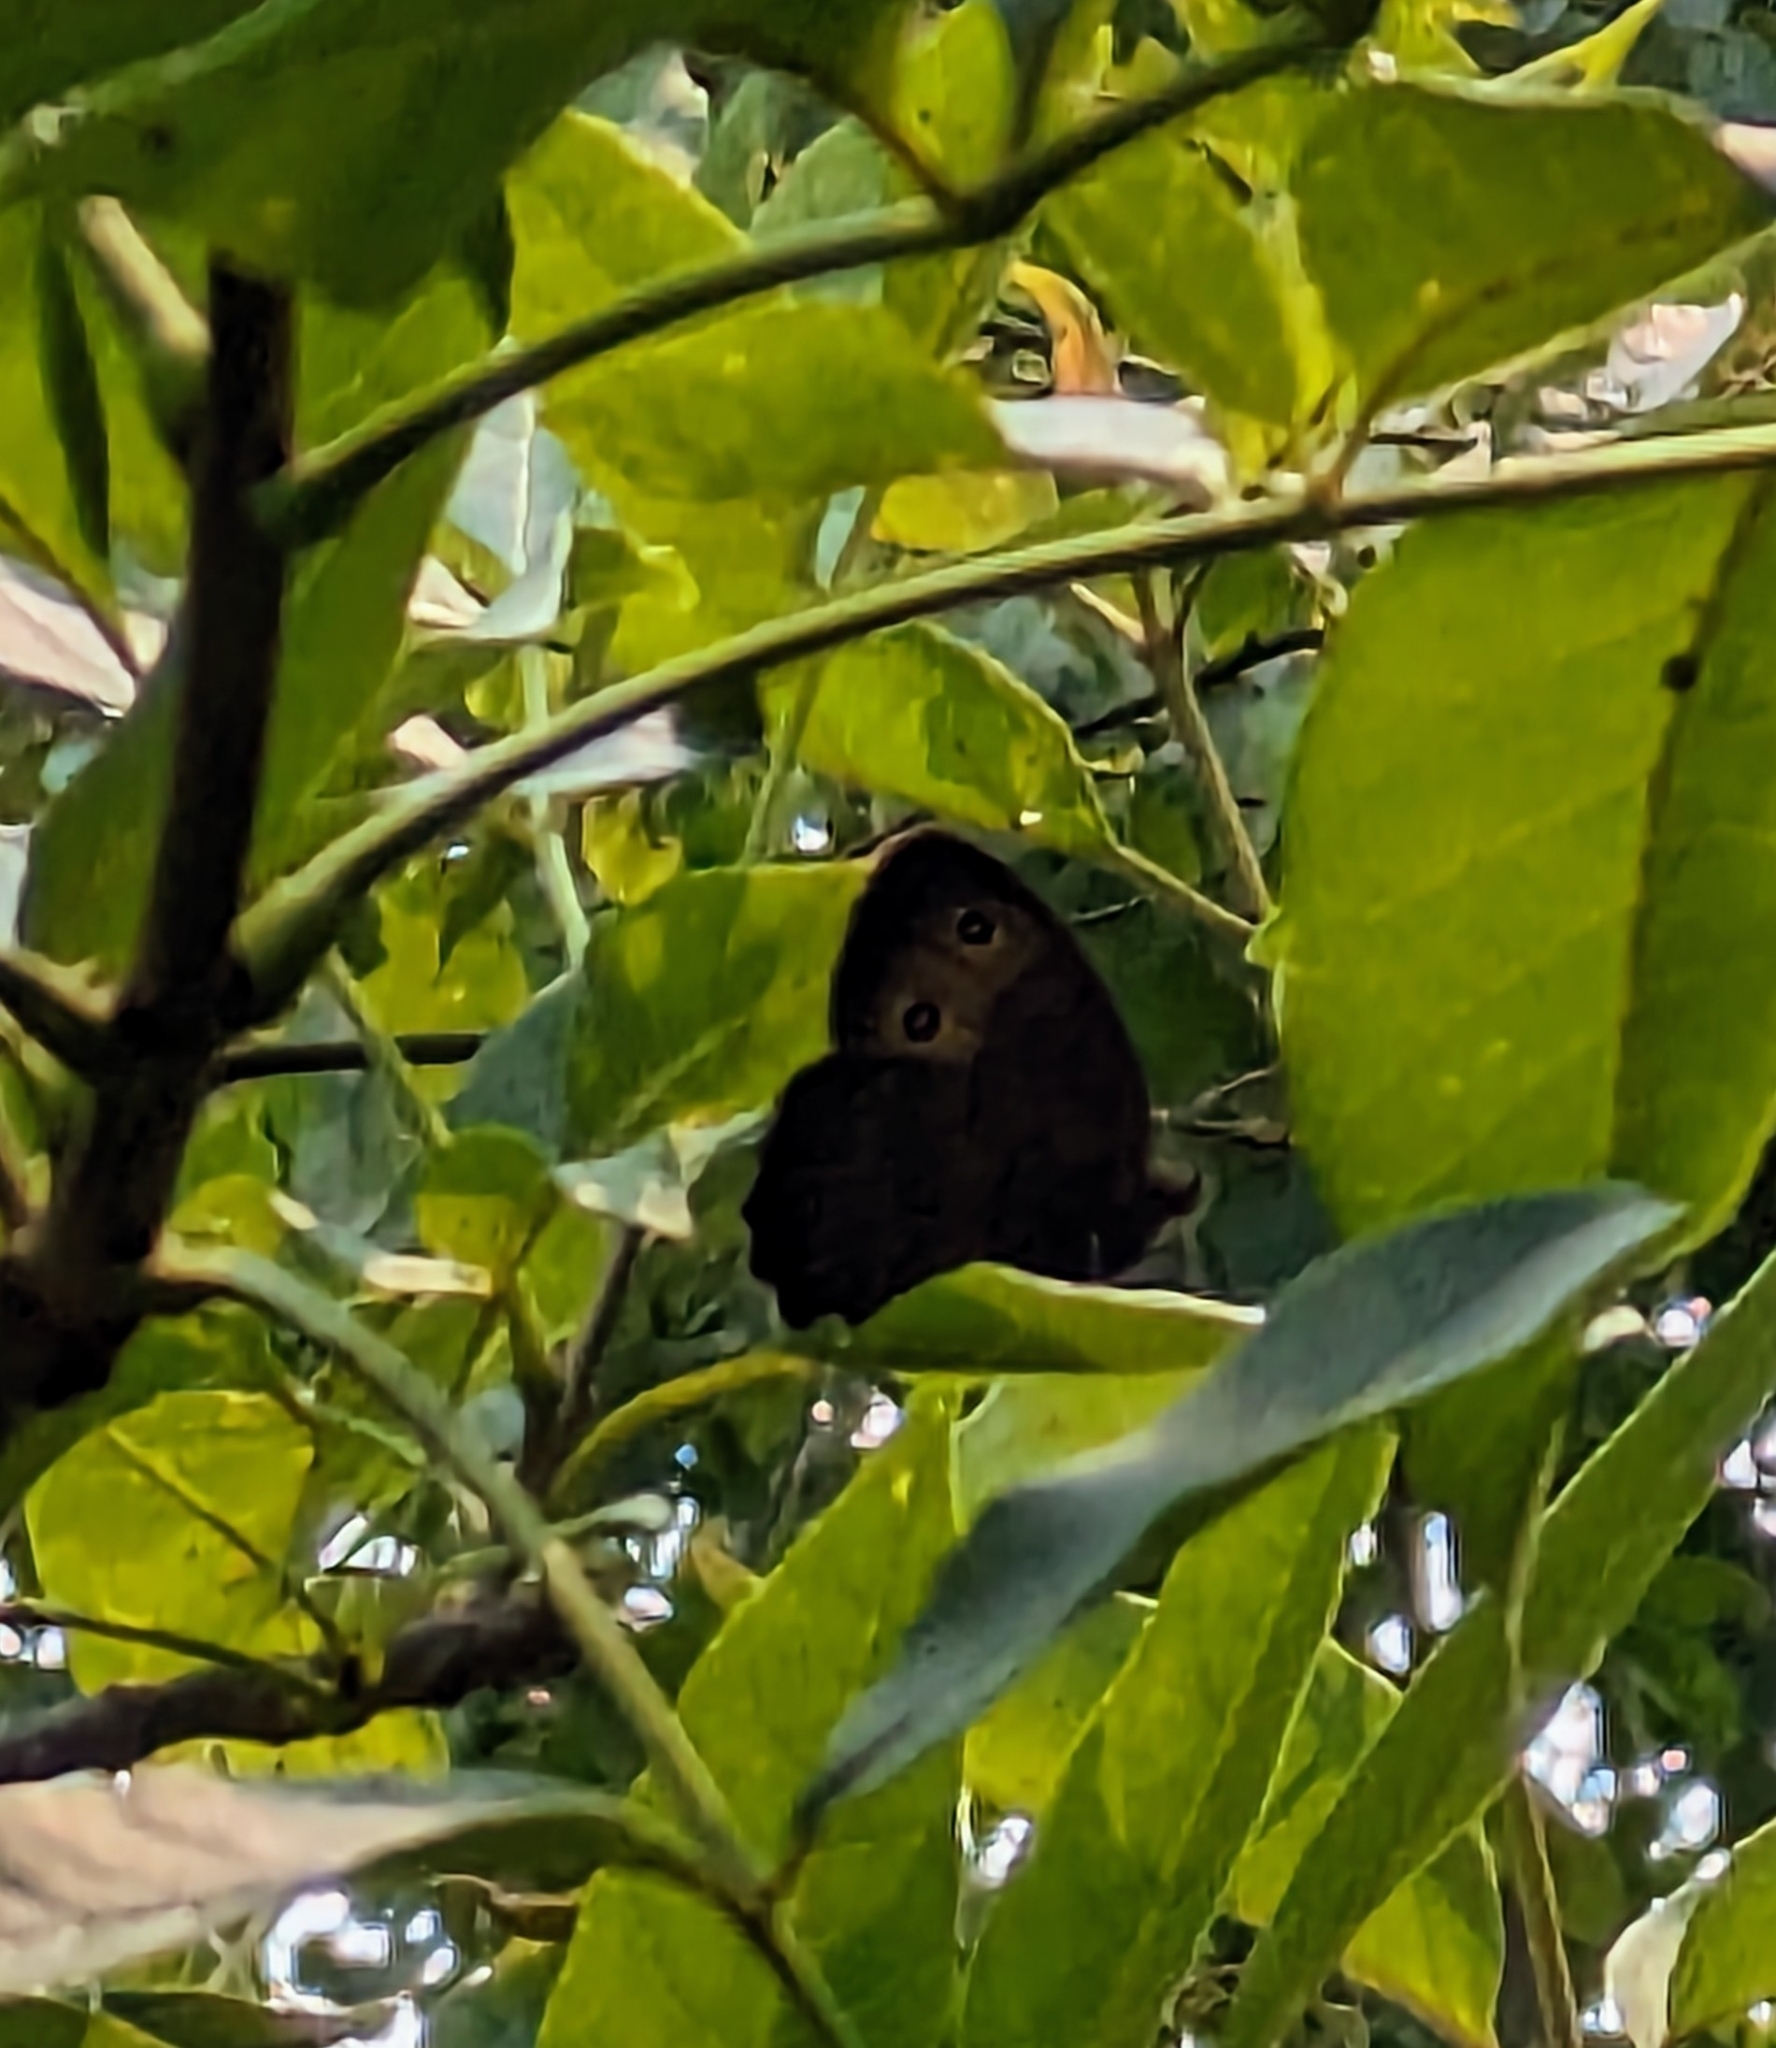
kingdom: Animalia
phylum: Arthropoda
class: Insecta
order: Lepidoptera
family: Nymphalidae
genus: Cercyonis
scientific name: Cercyonis pegala
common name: Common wood-nymph
